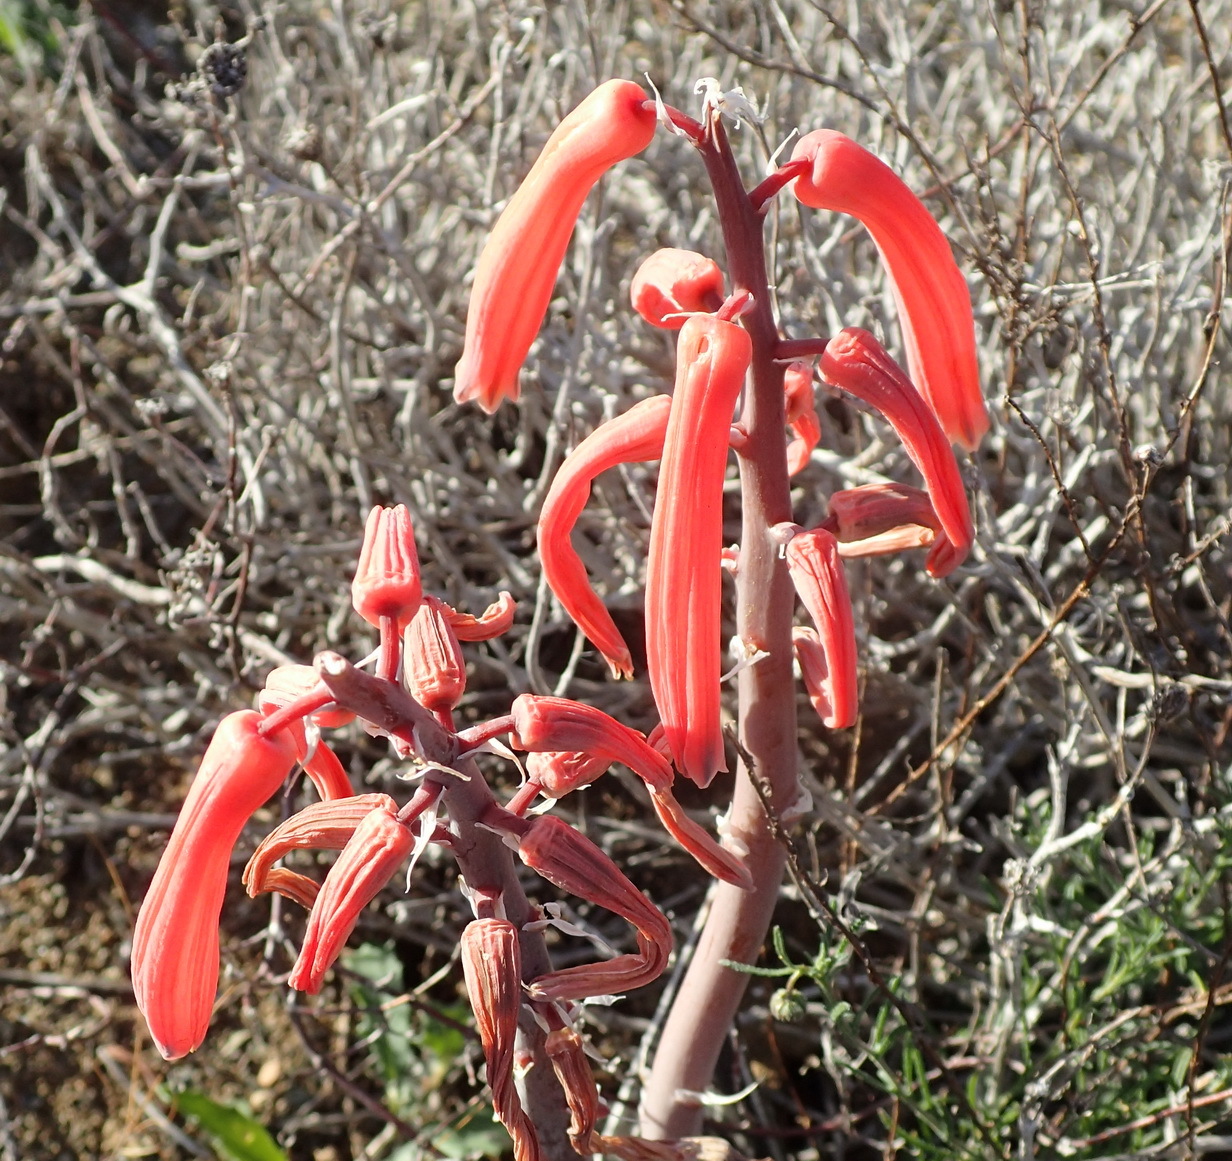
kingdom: Plantae
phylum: Tracheophyta
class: Liliopsida
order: Asparagales
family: Asphodelaceae
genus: Gonialoe
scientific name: Gonialoe variegata
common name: Aloe variegata
